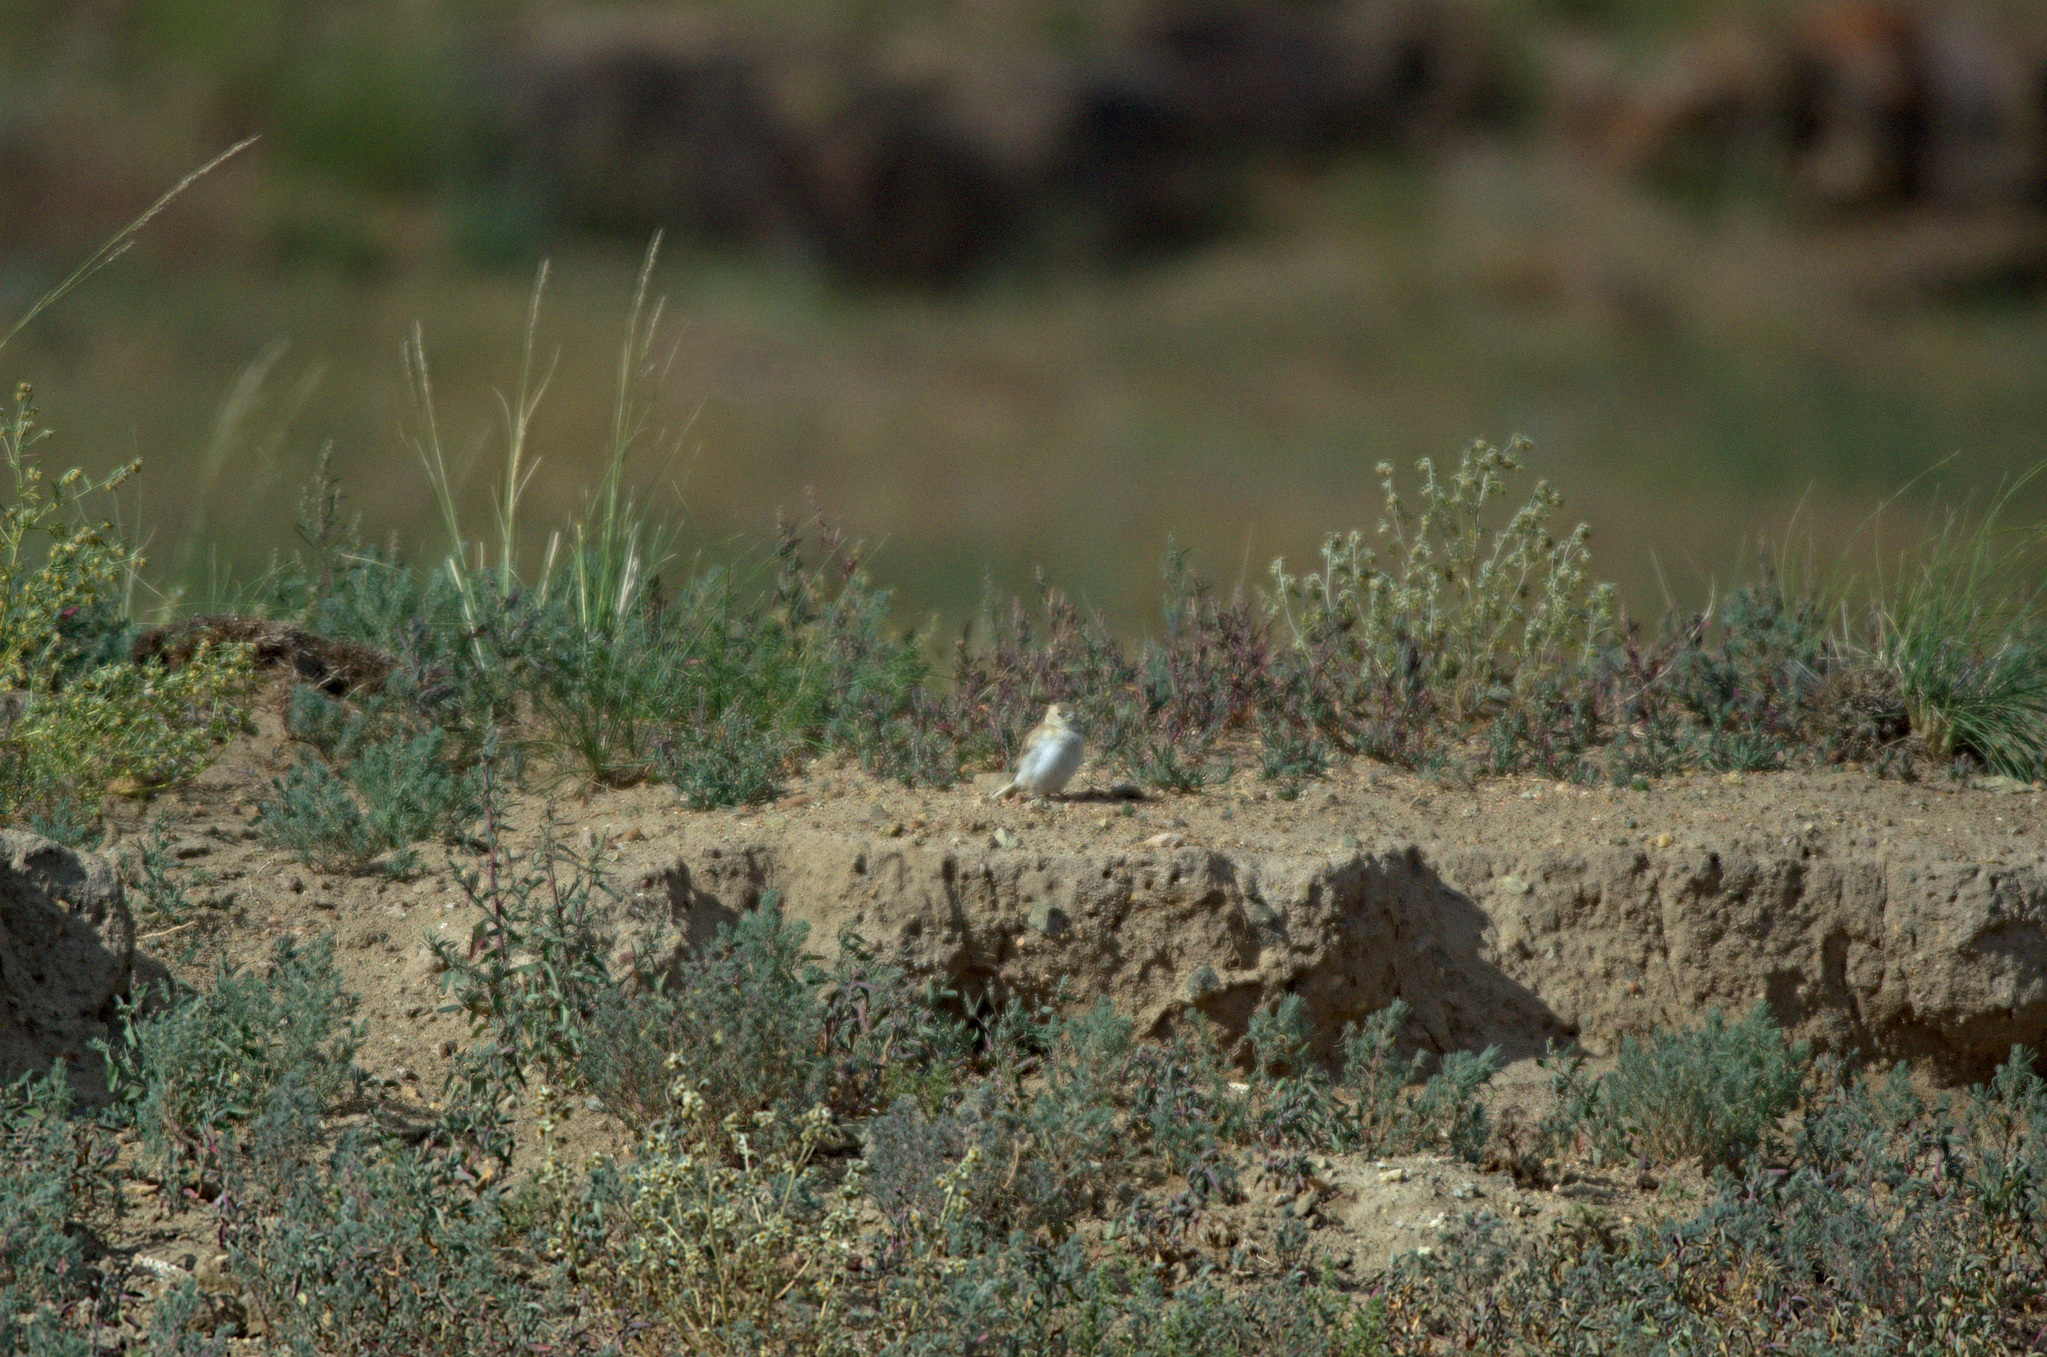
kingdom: Animalia
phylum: Chordata
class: Aves
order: Passeriformes
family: Passeridae
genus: Pyrgilauda
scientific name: Pyrgilauda davidiana
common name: Pere david's snowfinch
